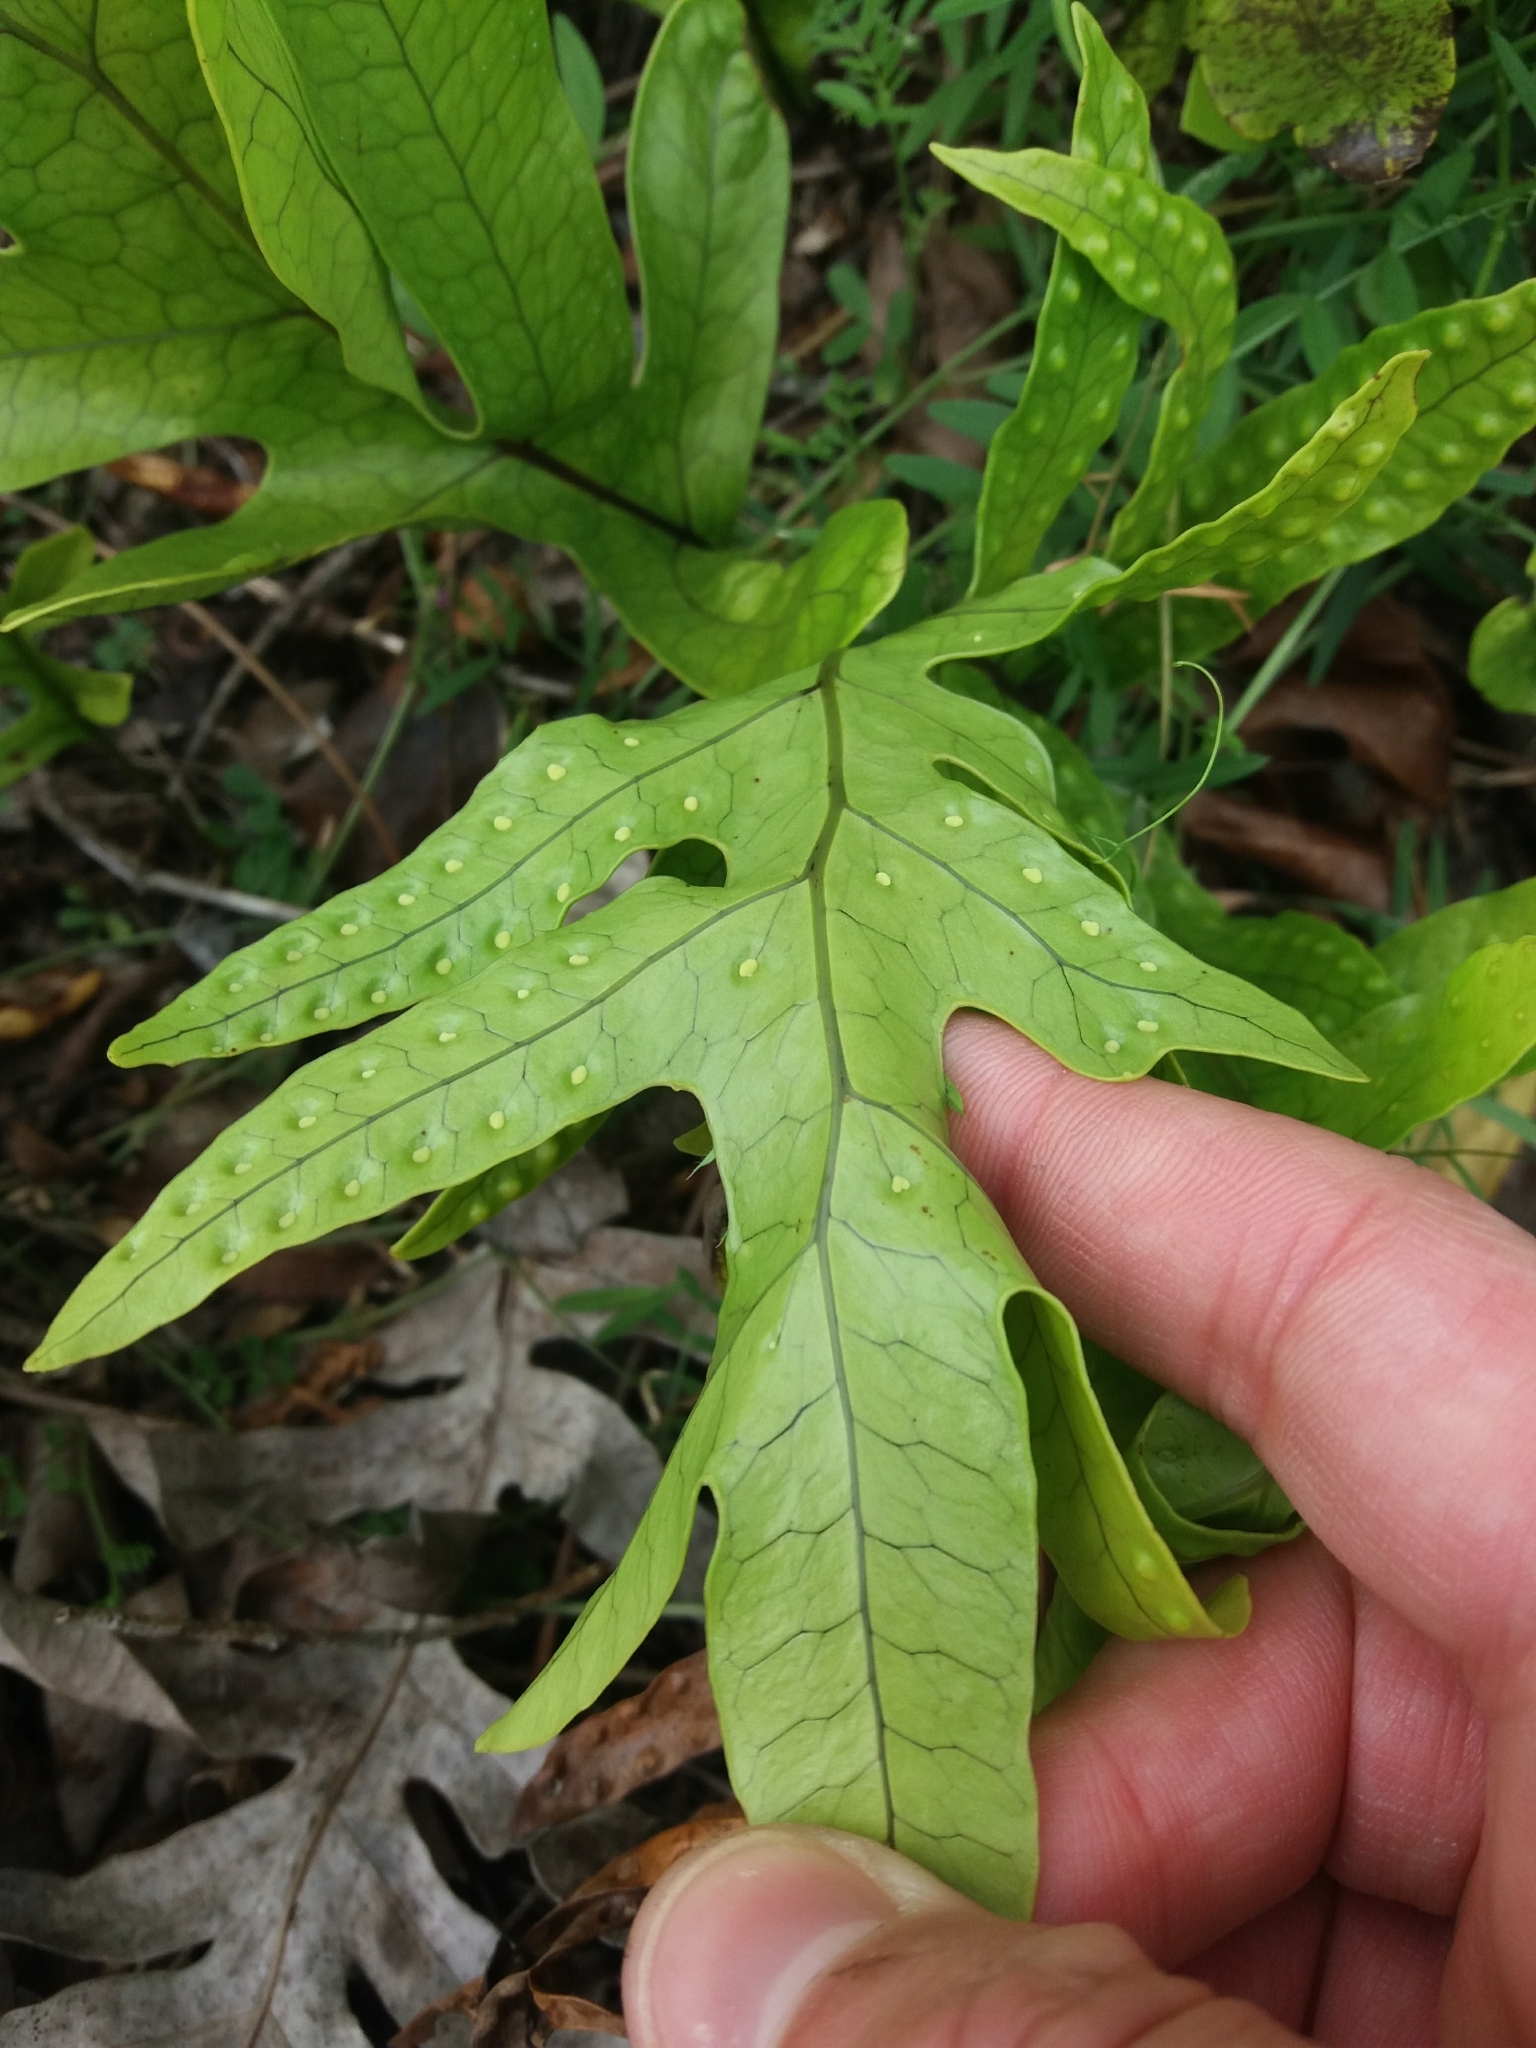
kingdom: Plantae
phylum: Tracheophyta
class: Polypodiopsida
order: Polypodiales
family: Polypodiaceae
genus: Lecanopteris
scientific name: Lecanopteris pustulata
